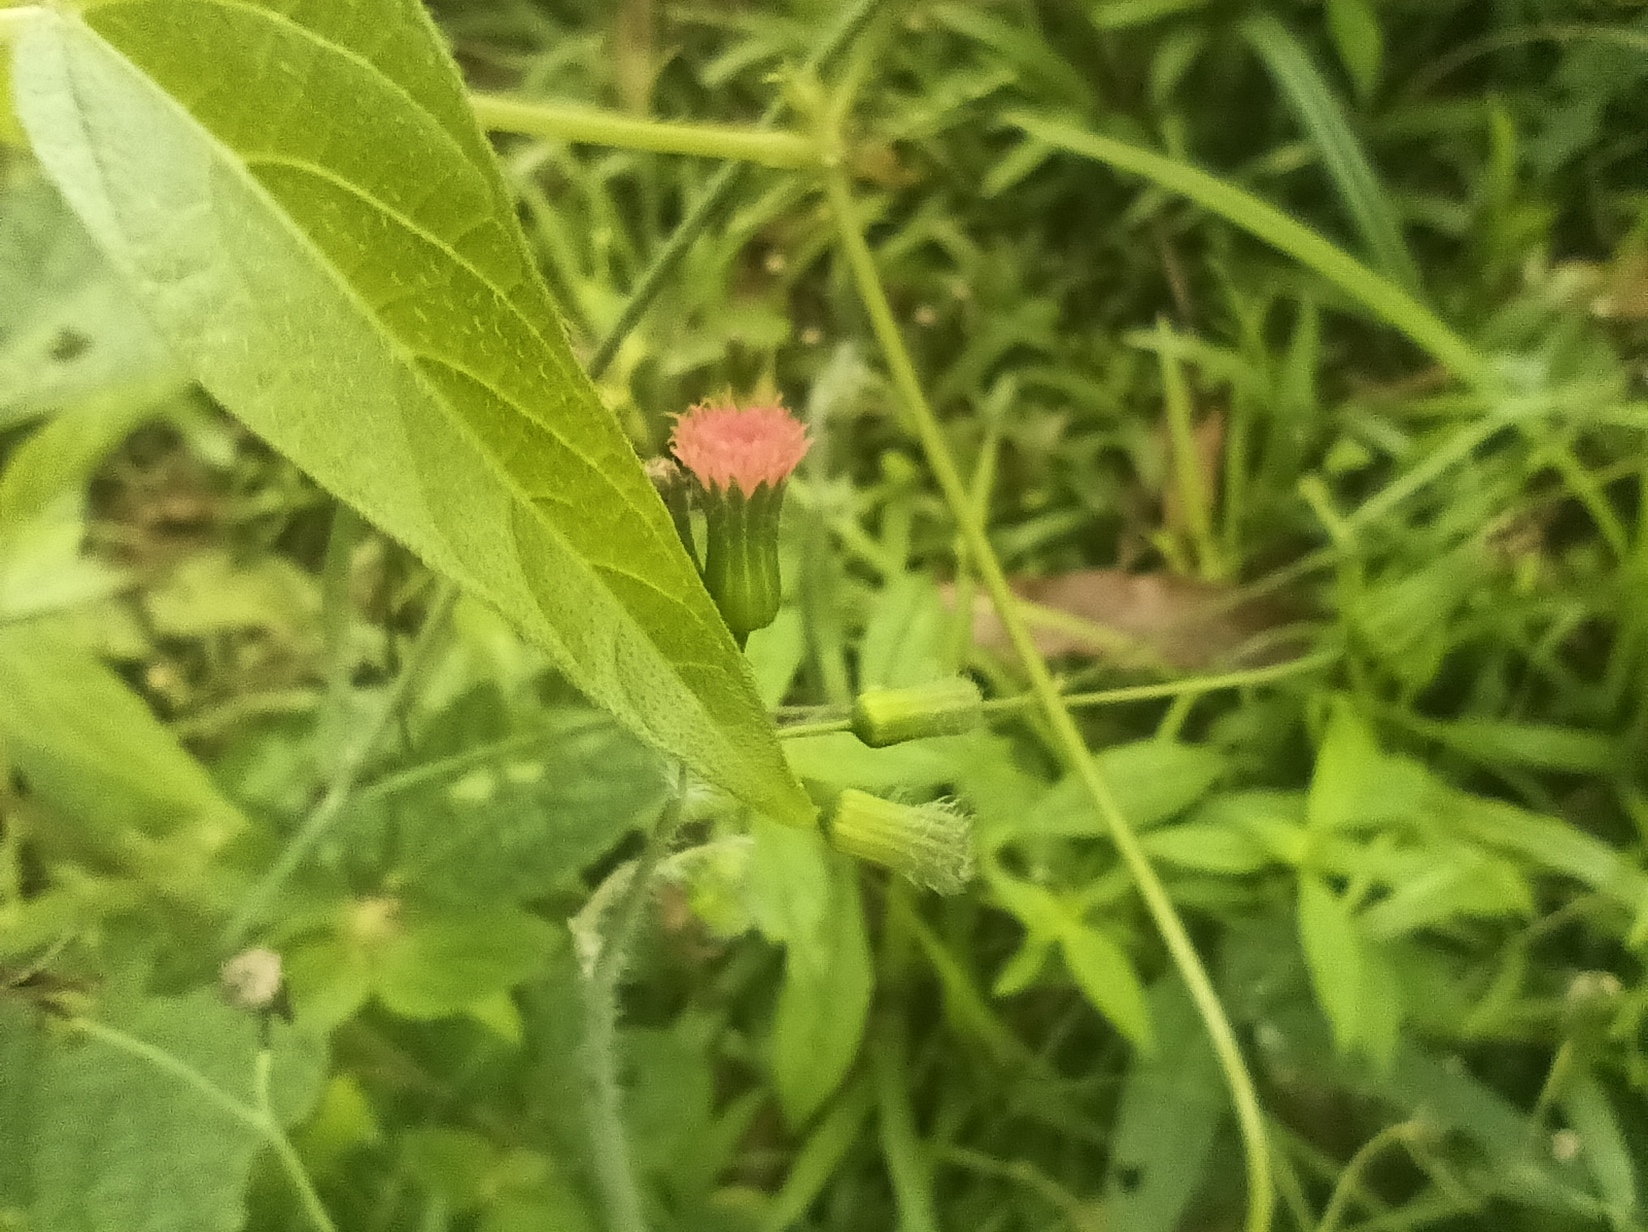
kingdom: Plantae
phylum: Tracheophyta
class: Magnoliopsida
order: Asterales
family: Asteraceae
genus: Emilia
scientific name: Emilia fosbergii
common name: Florida tasselflower
